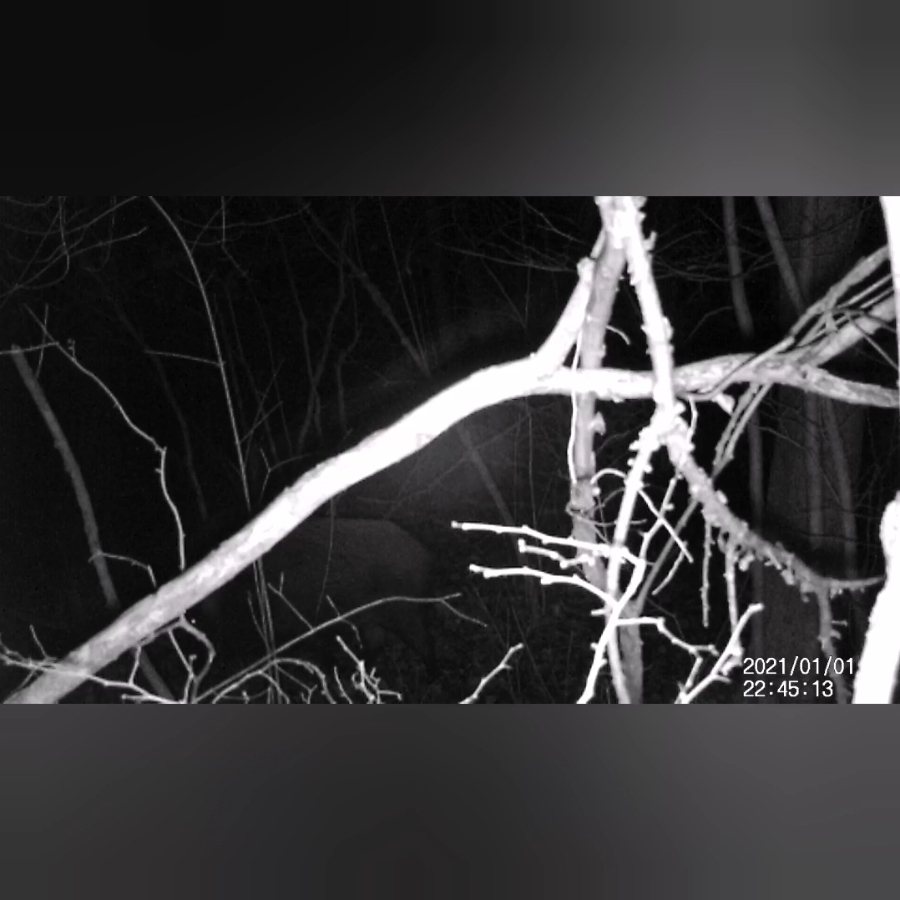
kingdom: Animalia
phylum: Chordata
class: Mammalia
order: Artiodactyla
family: Suidae
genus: Sus
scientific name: Sus scrofa
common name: Wild boar
